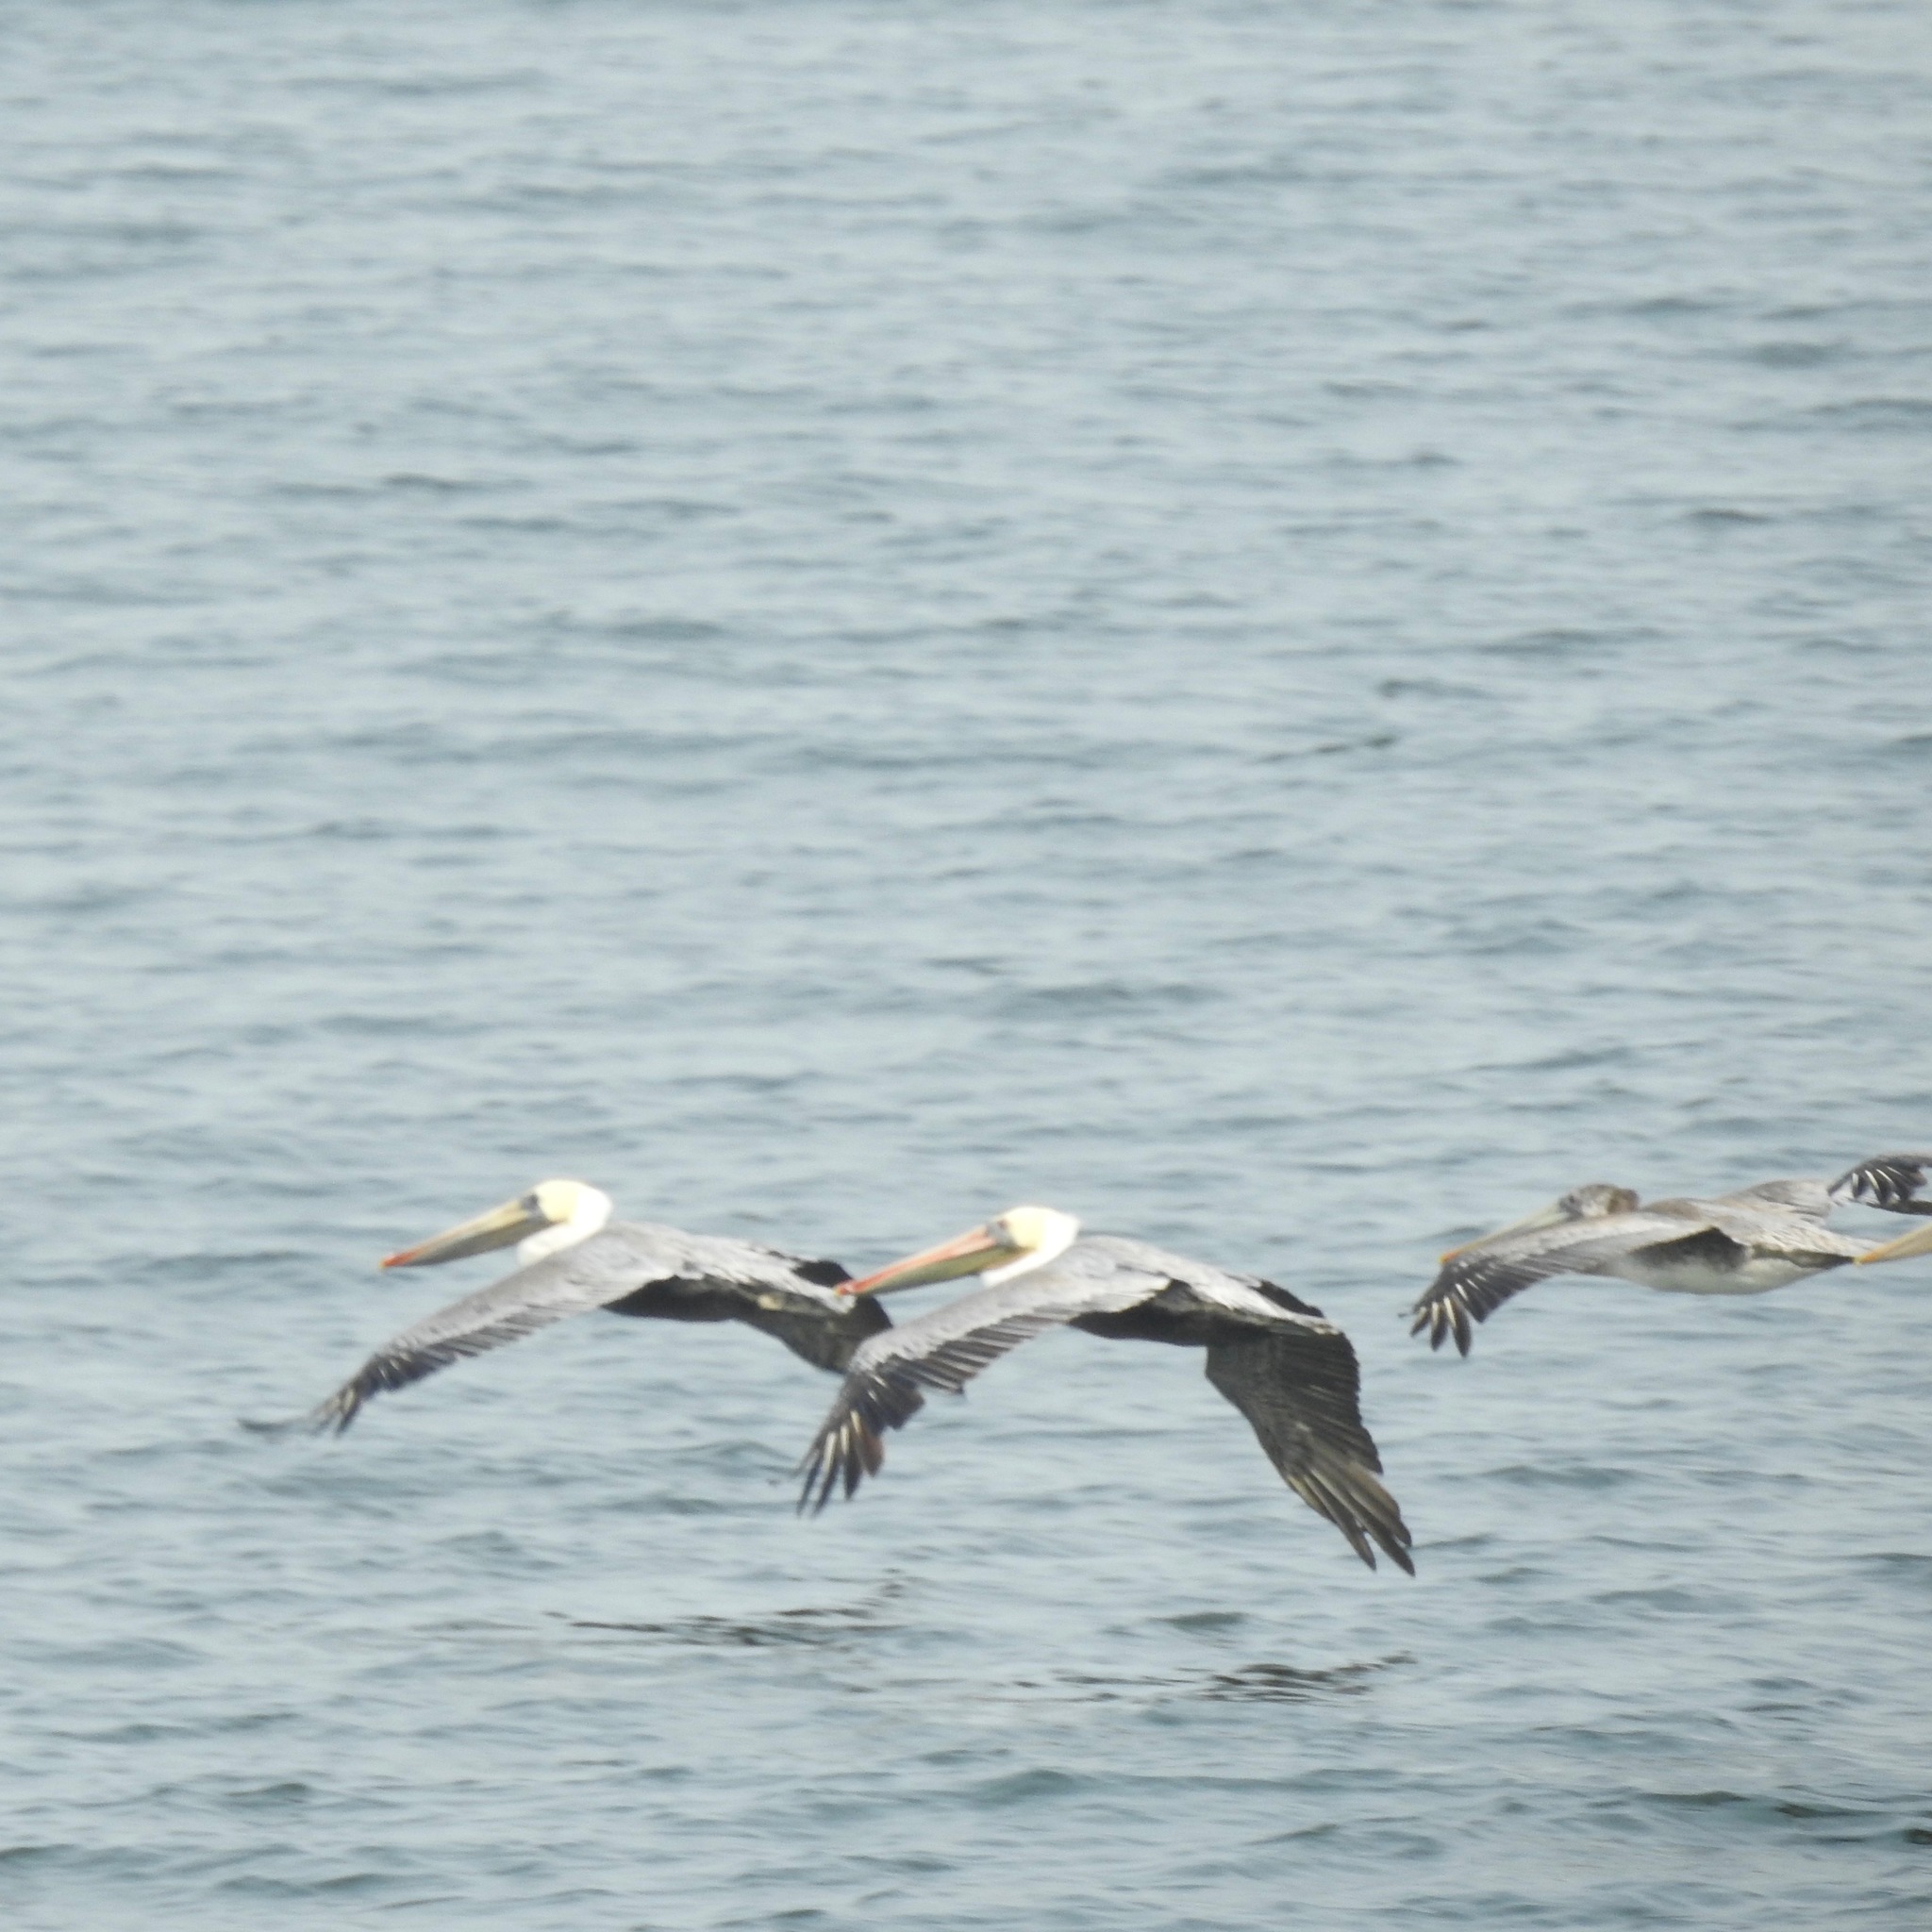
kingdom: Animalia
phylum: Chordata
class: Aves
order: Pelecaniformes
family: Pelecanidae
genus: Pelecanus
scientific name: Pelecanus occidentalis
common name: Brown pelican
